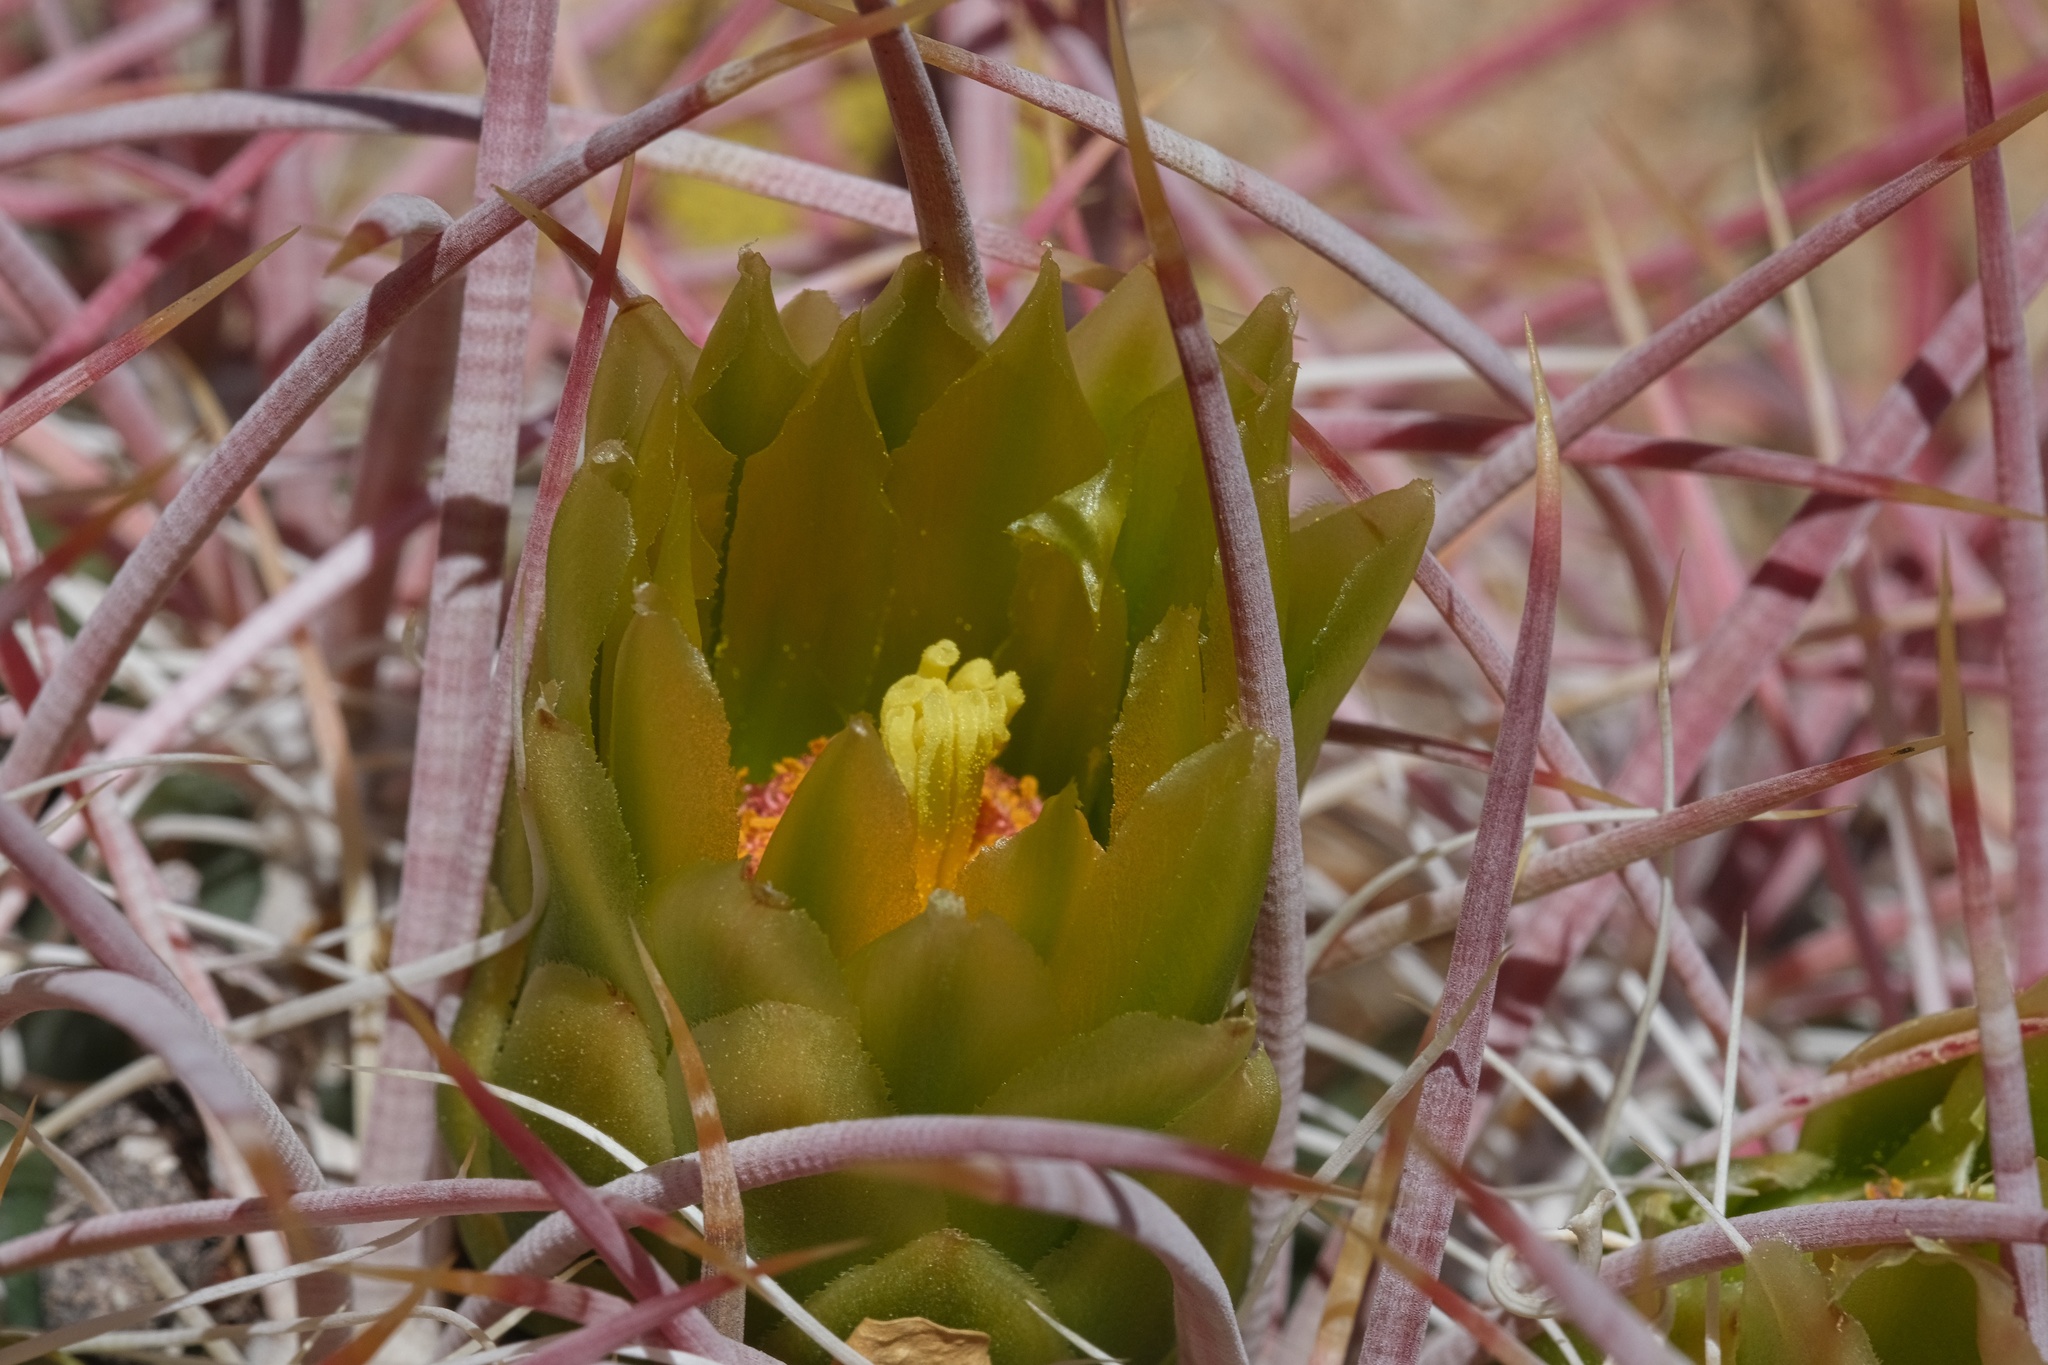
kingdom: Plantae
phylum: Tracheophyta
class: Magnoliopsida
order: Caryophyllales
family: Cactaceae
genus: Ferocactus
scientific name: Ferocactus cylindraceus
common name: California barrel cactus
